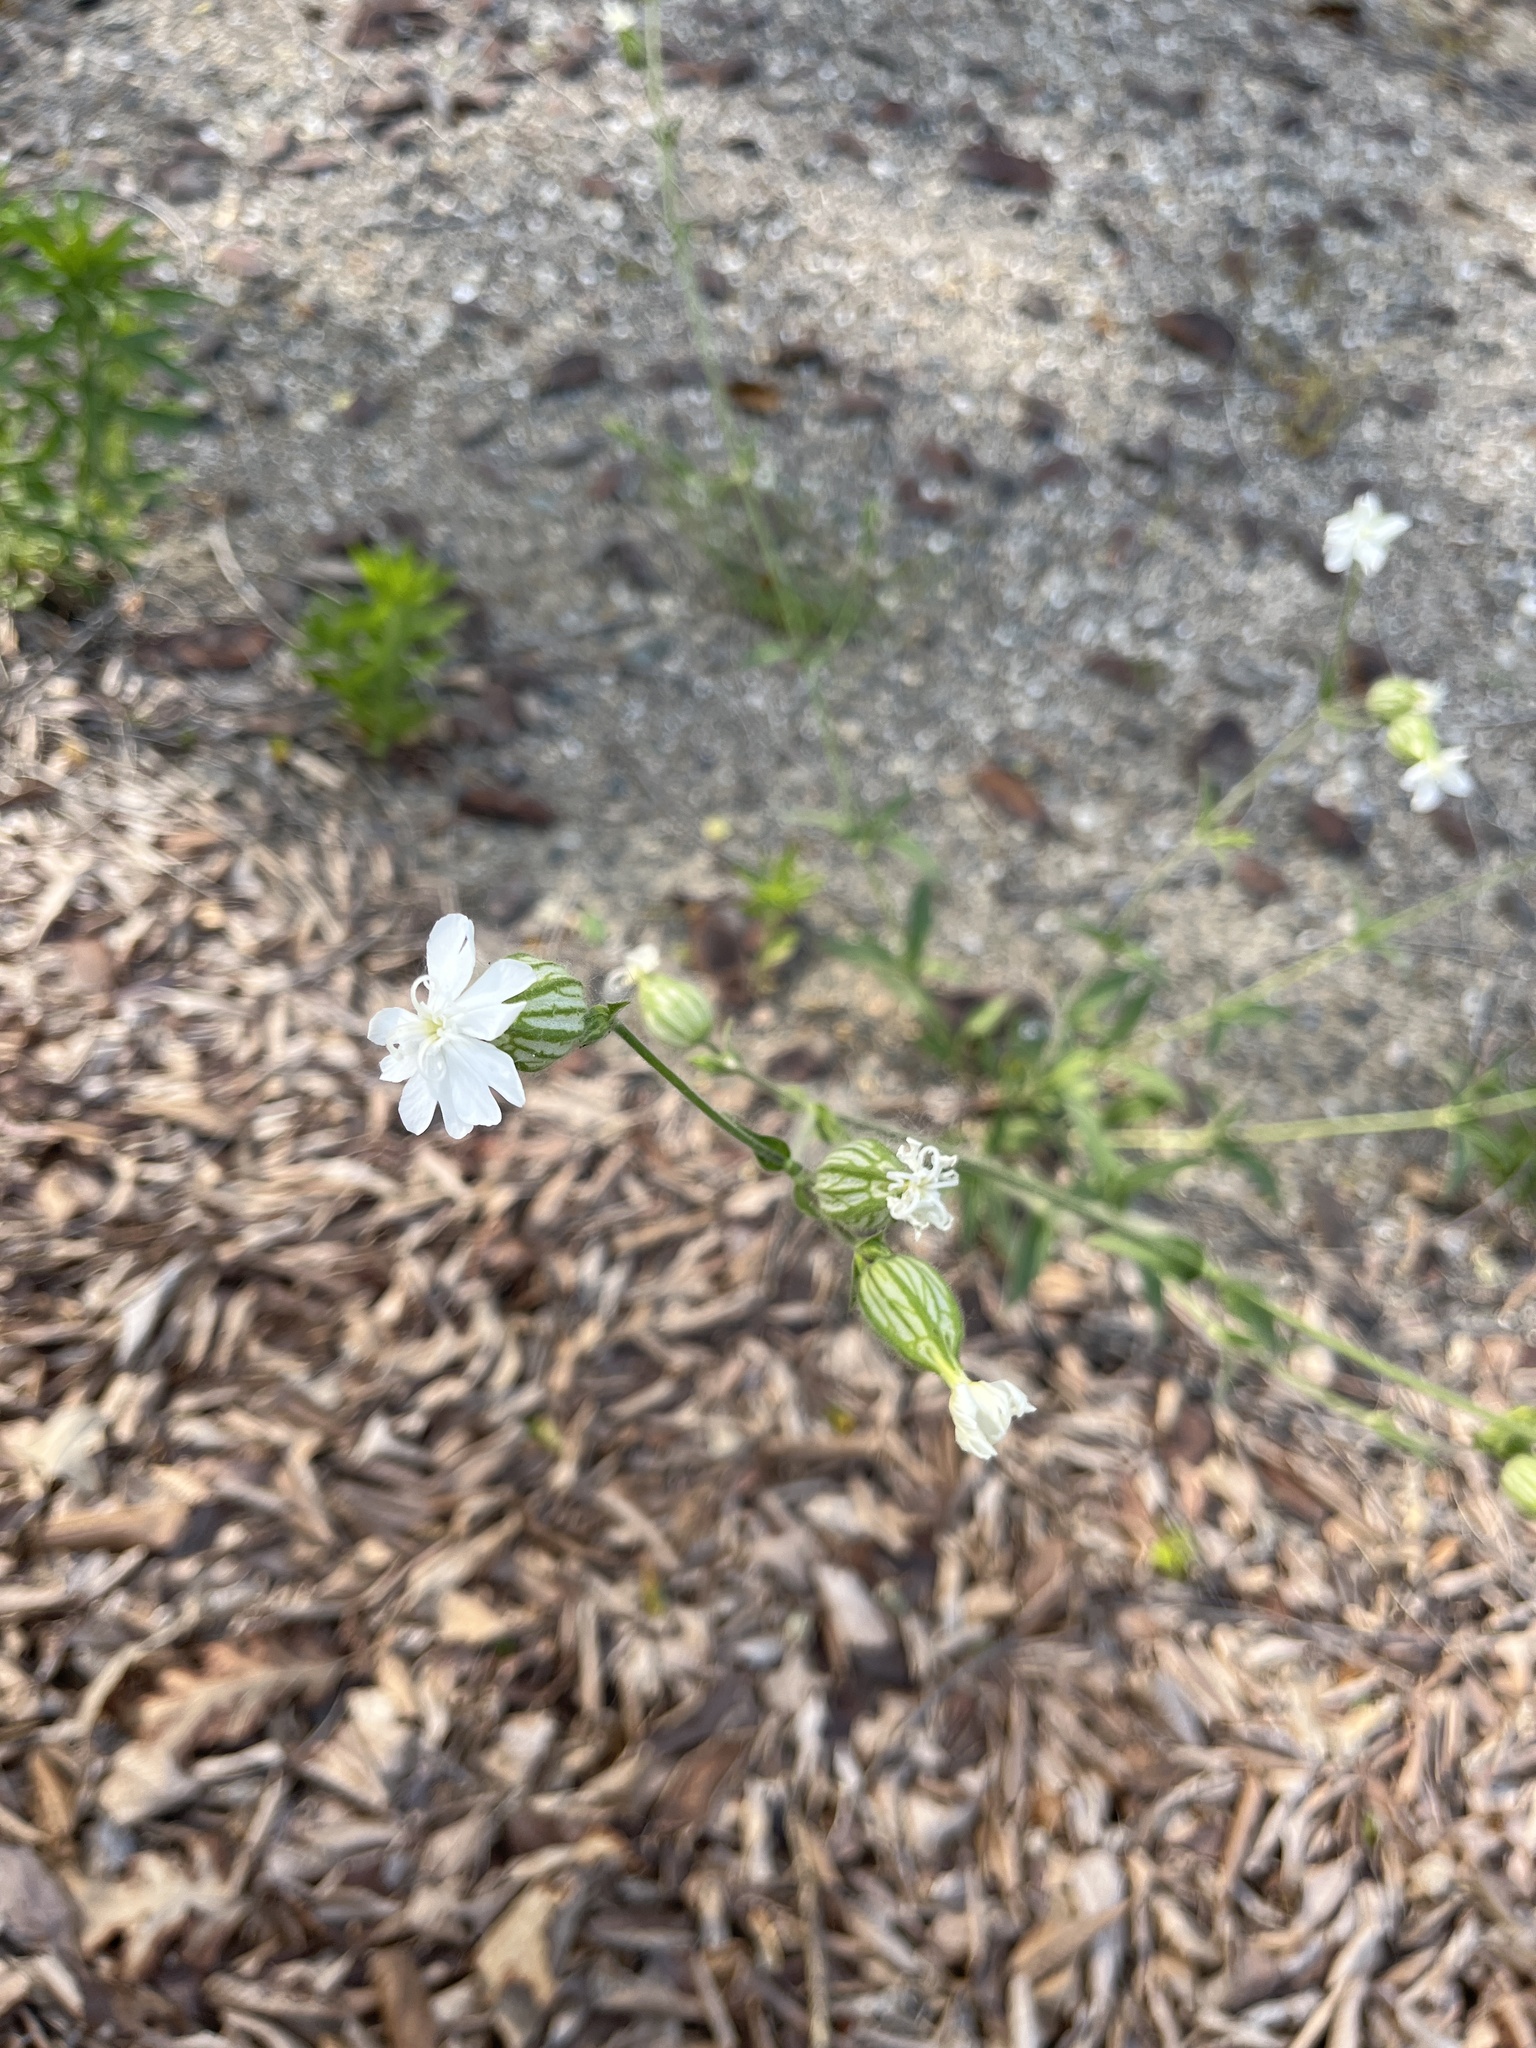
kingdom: Plantae
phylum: Tracheophyta
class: Magnoliopsida
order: Caryophyllales
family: Caryophyllaceae
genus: Silene
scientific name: Silene latifolia
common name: White campion
